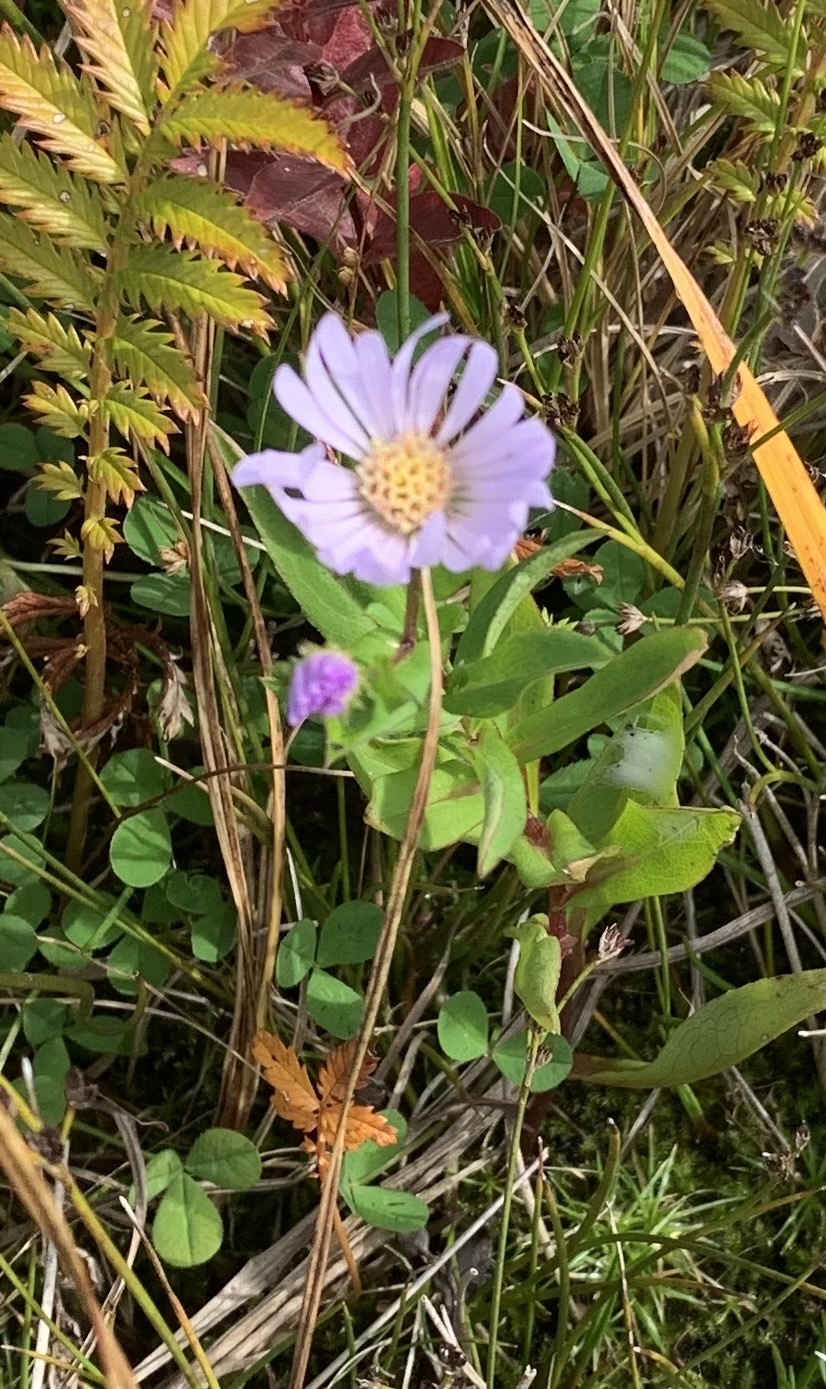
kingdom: Plantae
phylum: Tracheophyta
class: Magnoliopsida
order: Asterales
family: Asteraceae
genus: Symphyotrichum
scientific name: Symphyotrichum novi-belgii
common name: Michaelmas daisy
